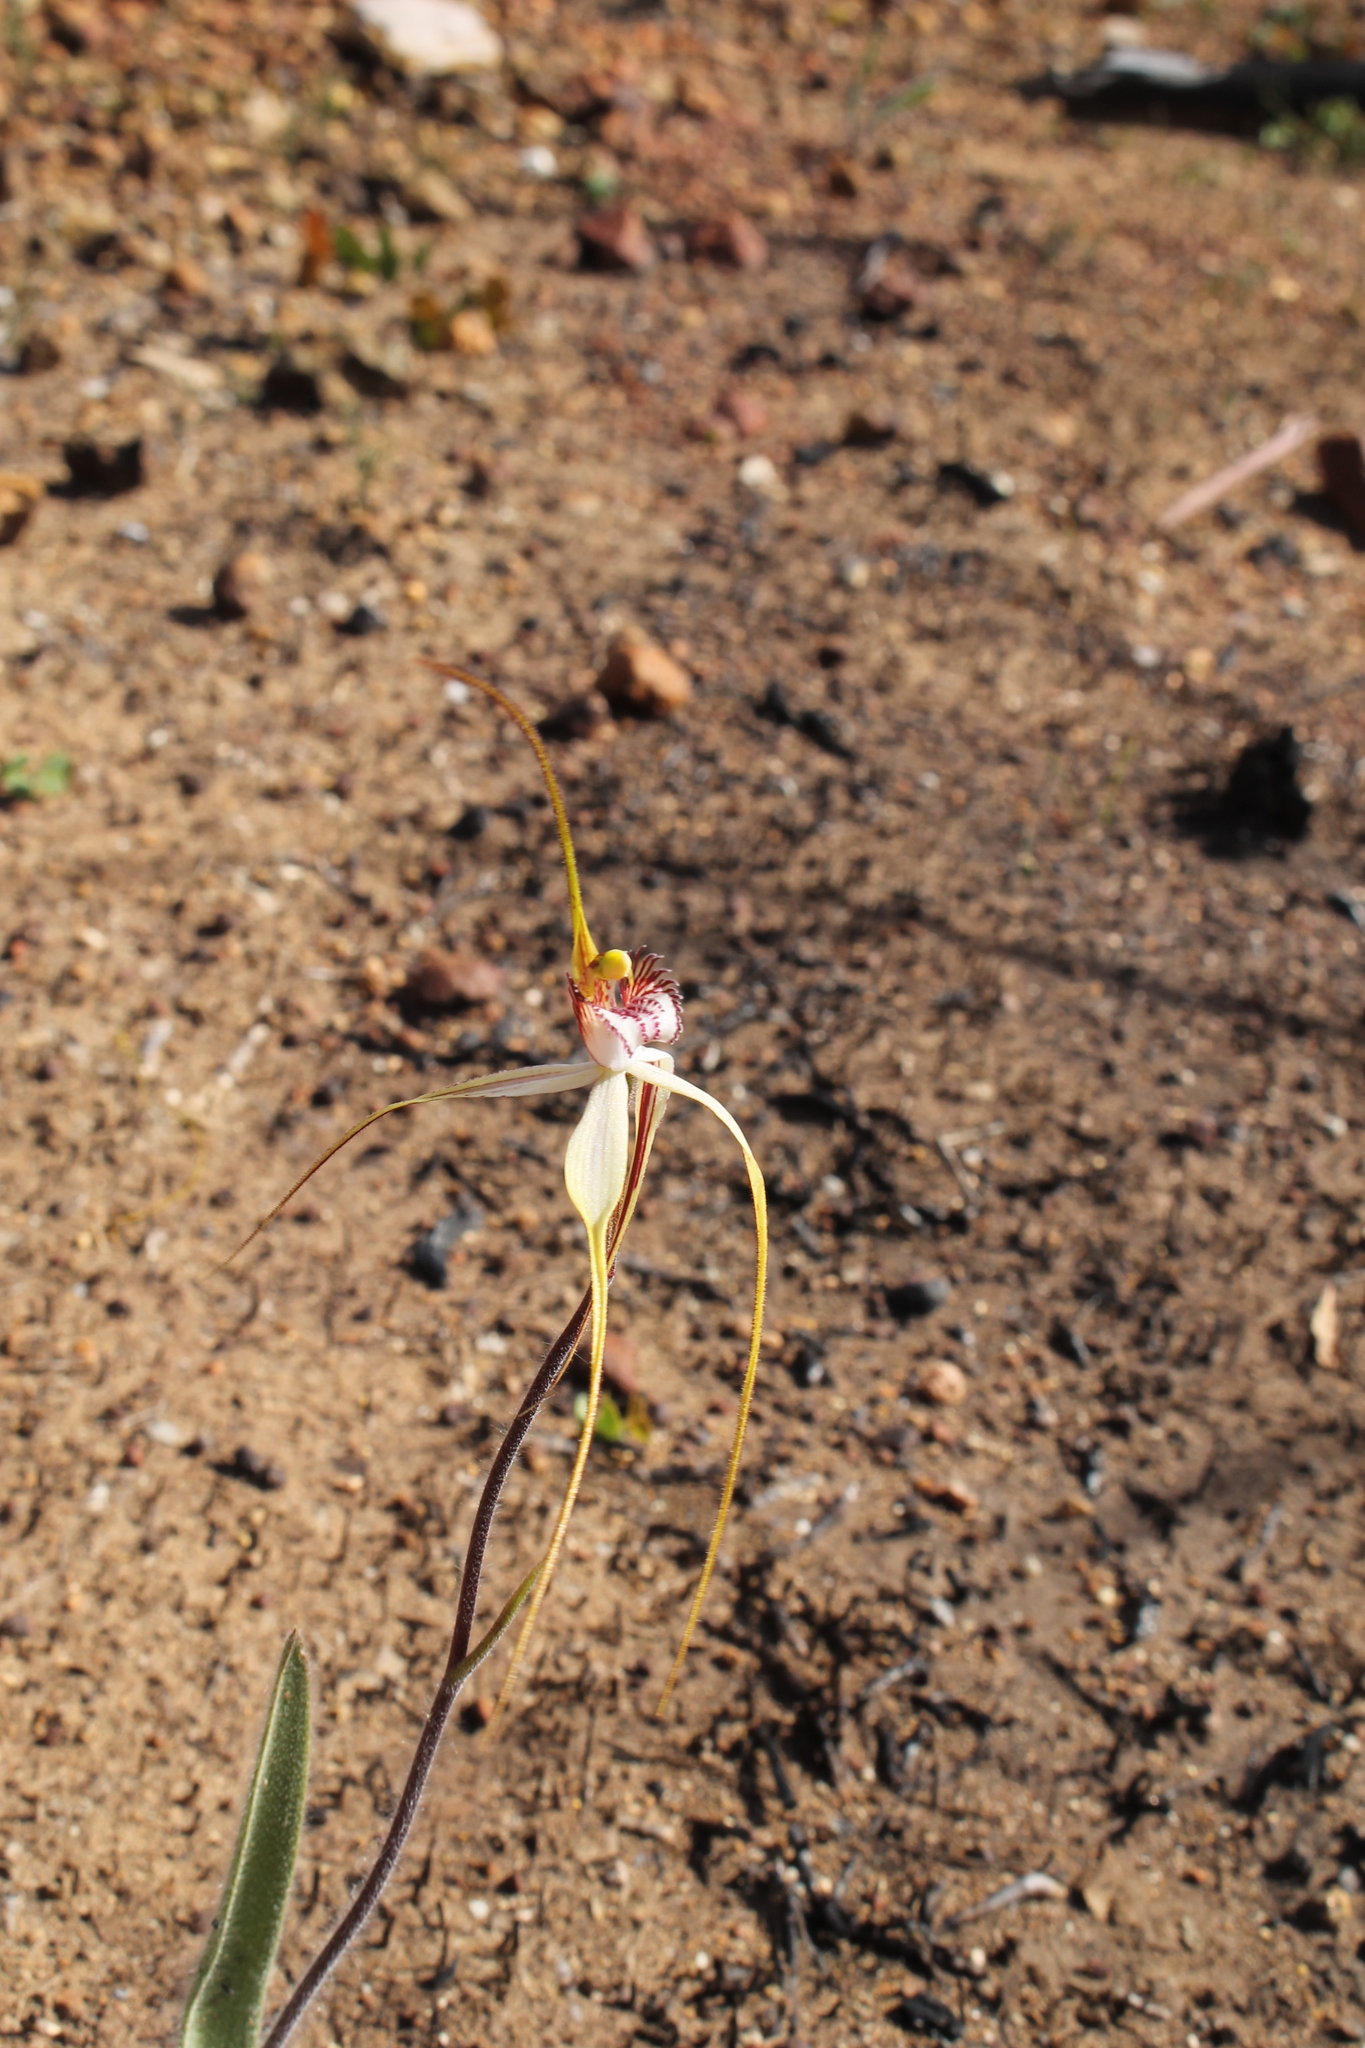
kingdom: Plantae
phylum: Tracheophyta
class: Liliopsida
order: Asparagales
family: Orchidaceae
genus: Caladenia
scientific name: Caladenia longicauda
